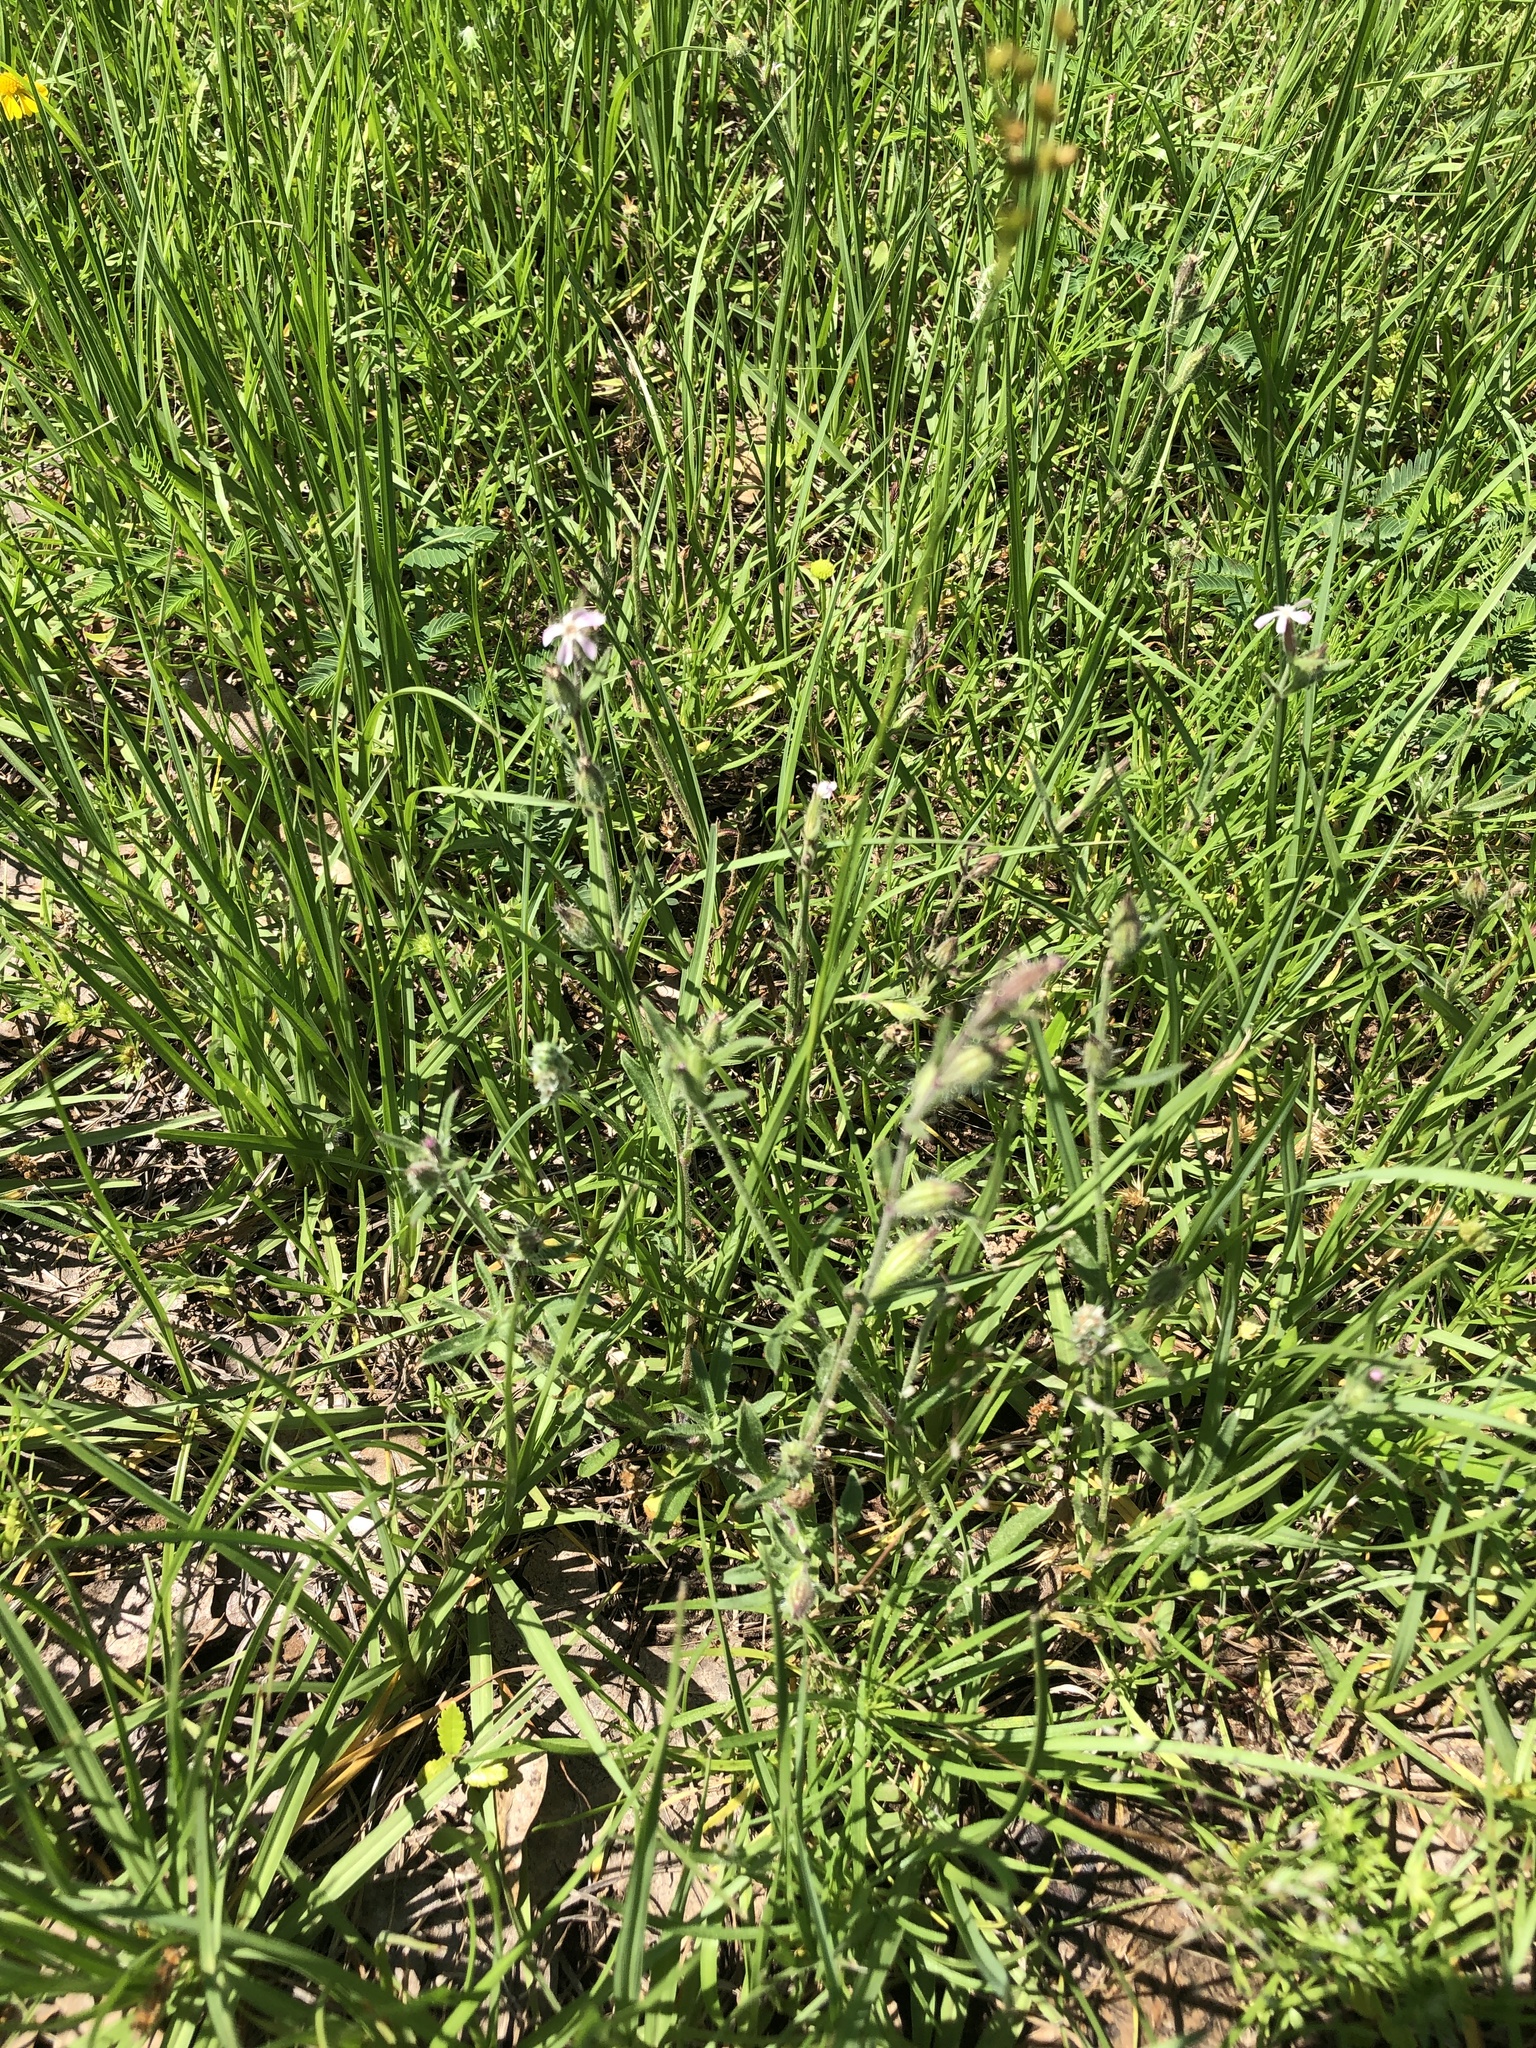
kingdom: Plantae
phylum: Tracheophyta
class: Magnoliopsida
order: Caryophyllales
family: Caryophyllaceae
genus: Silene
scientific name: Silene gallica
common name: Small-flowered catchfly
